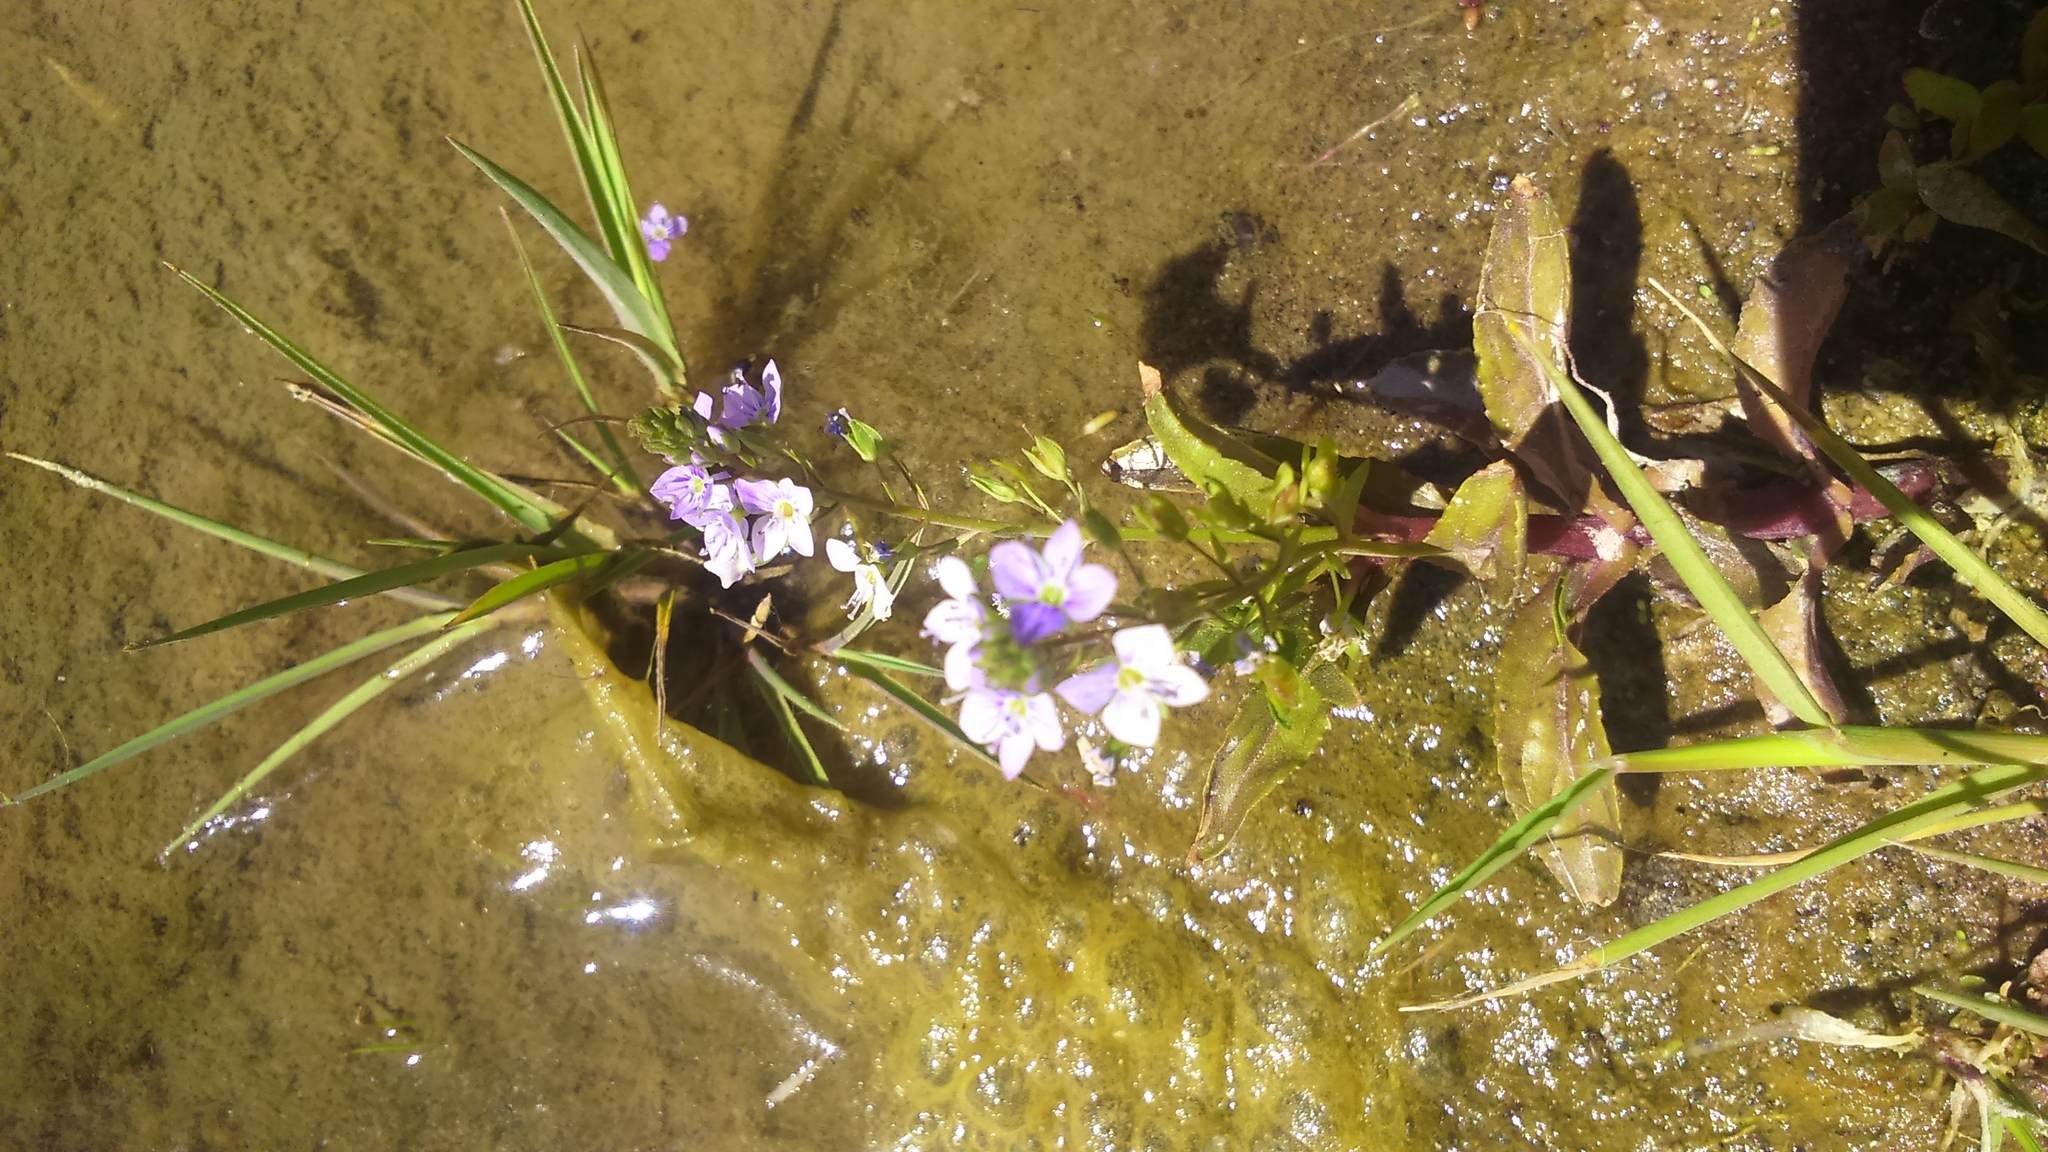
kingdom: Plantae
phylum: Tracheophyta
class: Magnoliopsida
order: Lamiales
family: Plantaginaceae
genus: Veronica
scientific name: Veronica anagallis-aquatica
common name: Water speedwell
